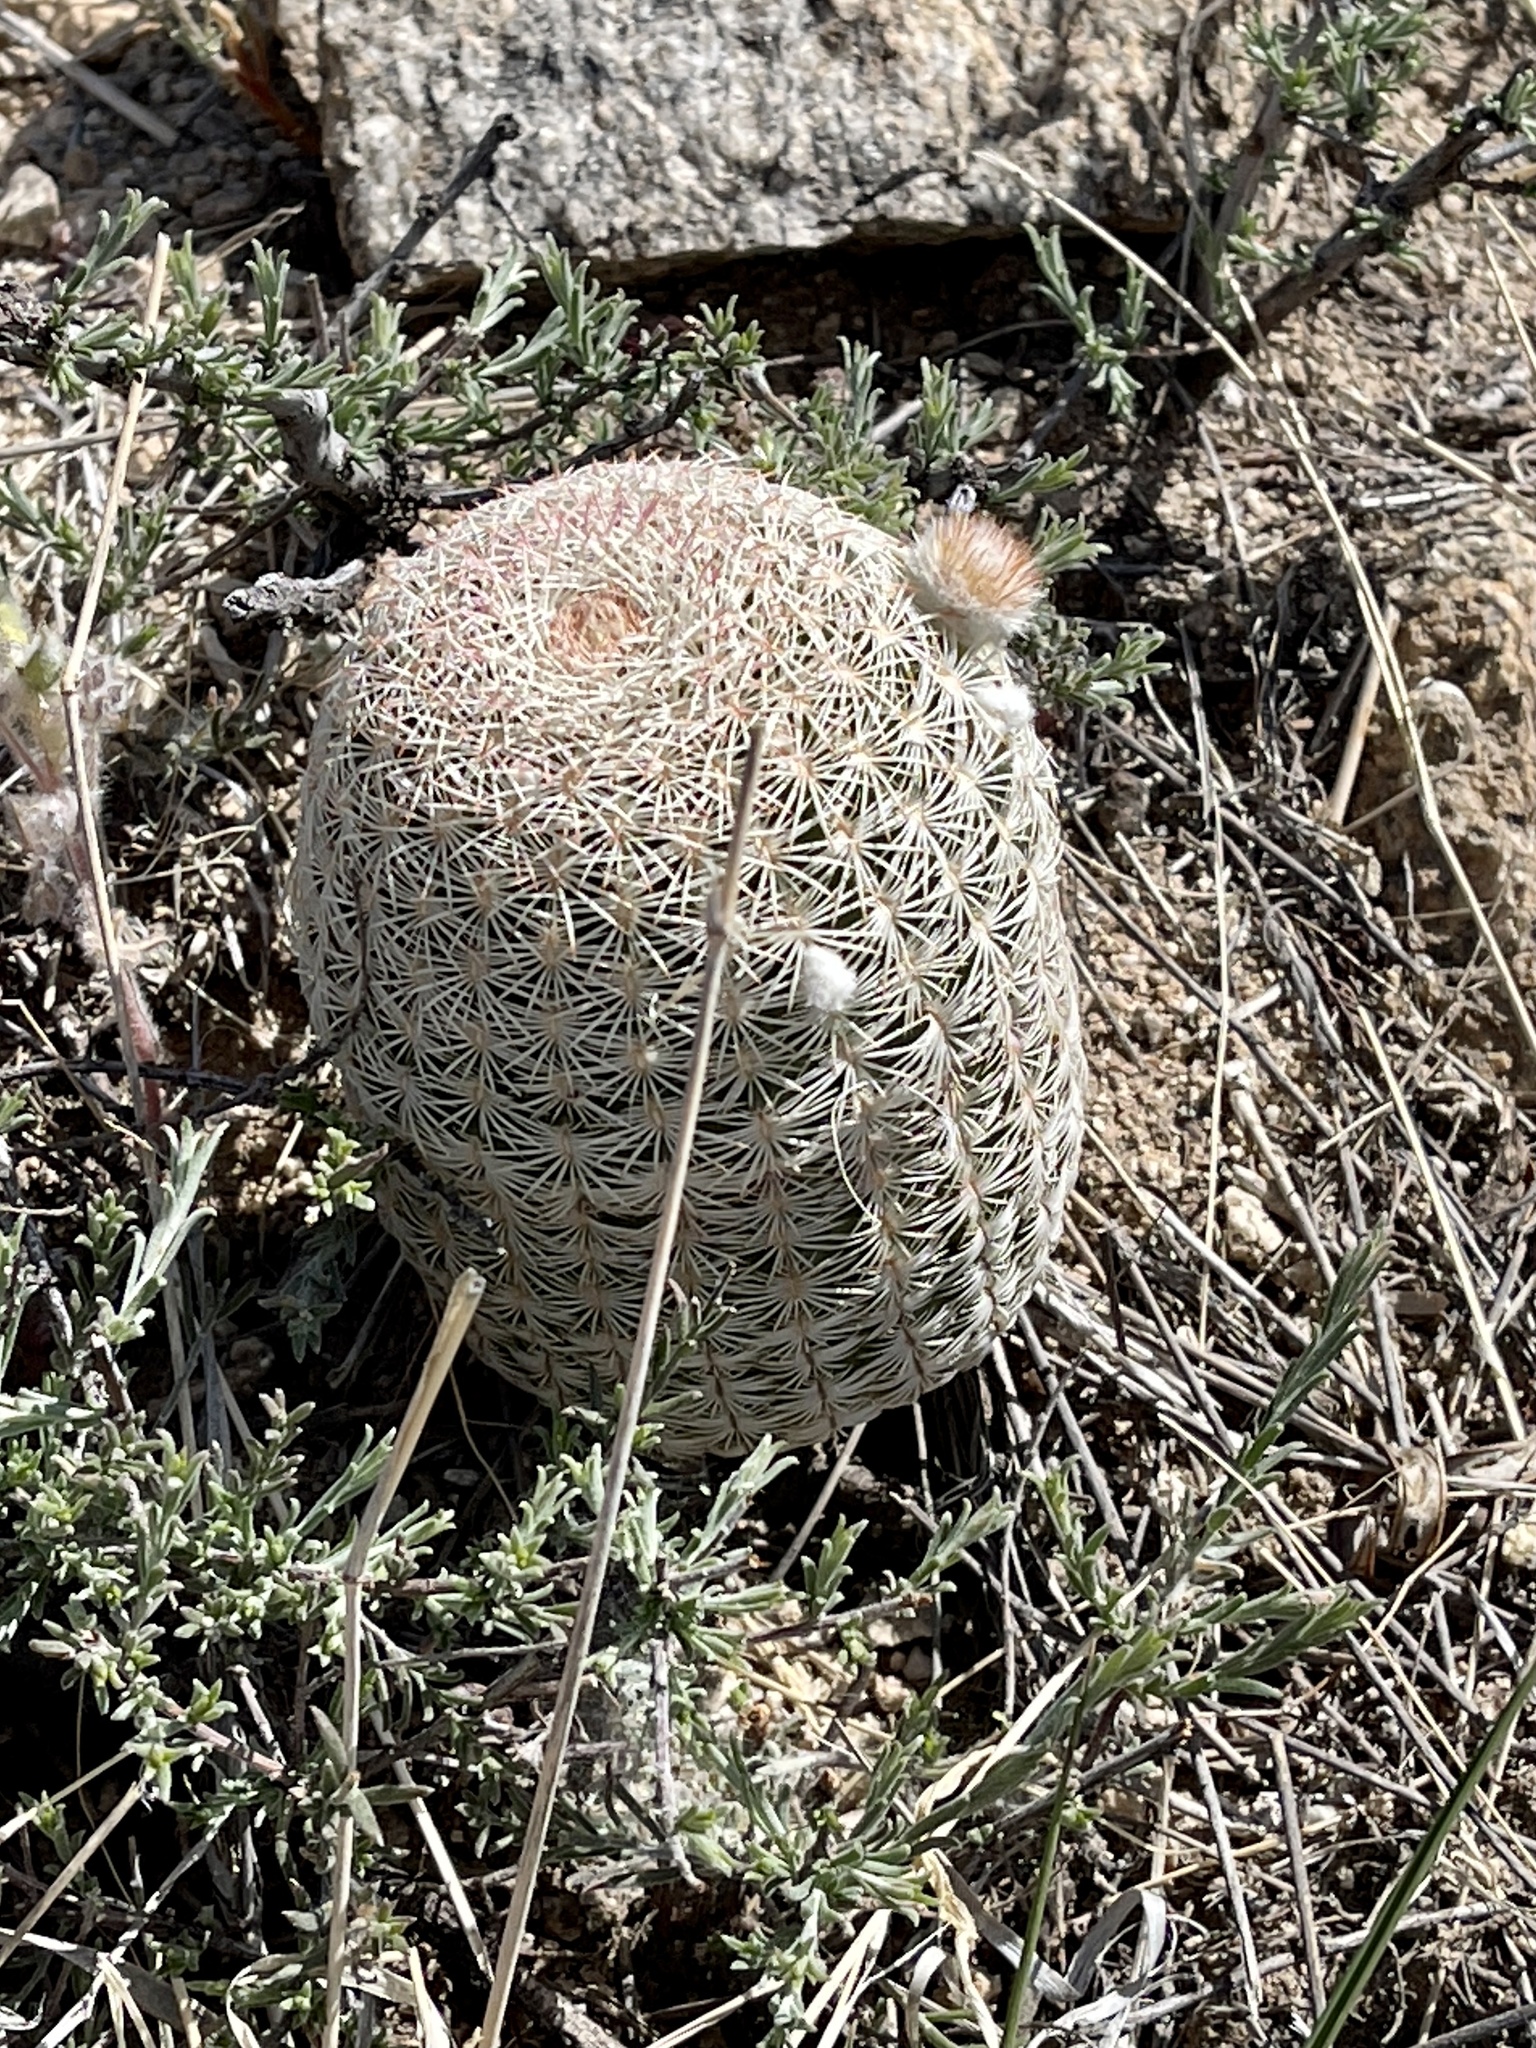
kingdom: Plantae
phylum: Tracheophyta
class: Magnoliopsida
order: Caryophyllales
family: Cactaceae
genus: Echinocereus
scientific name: Echinocereus rigidissimus
